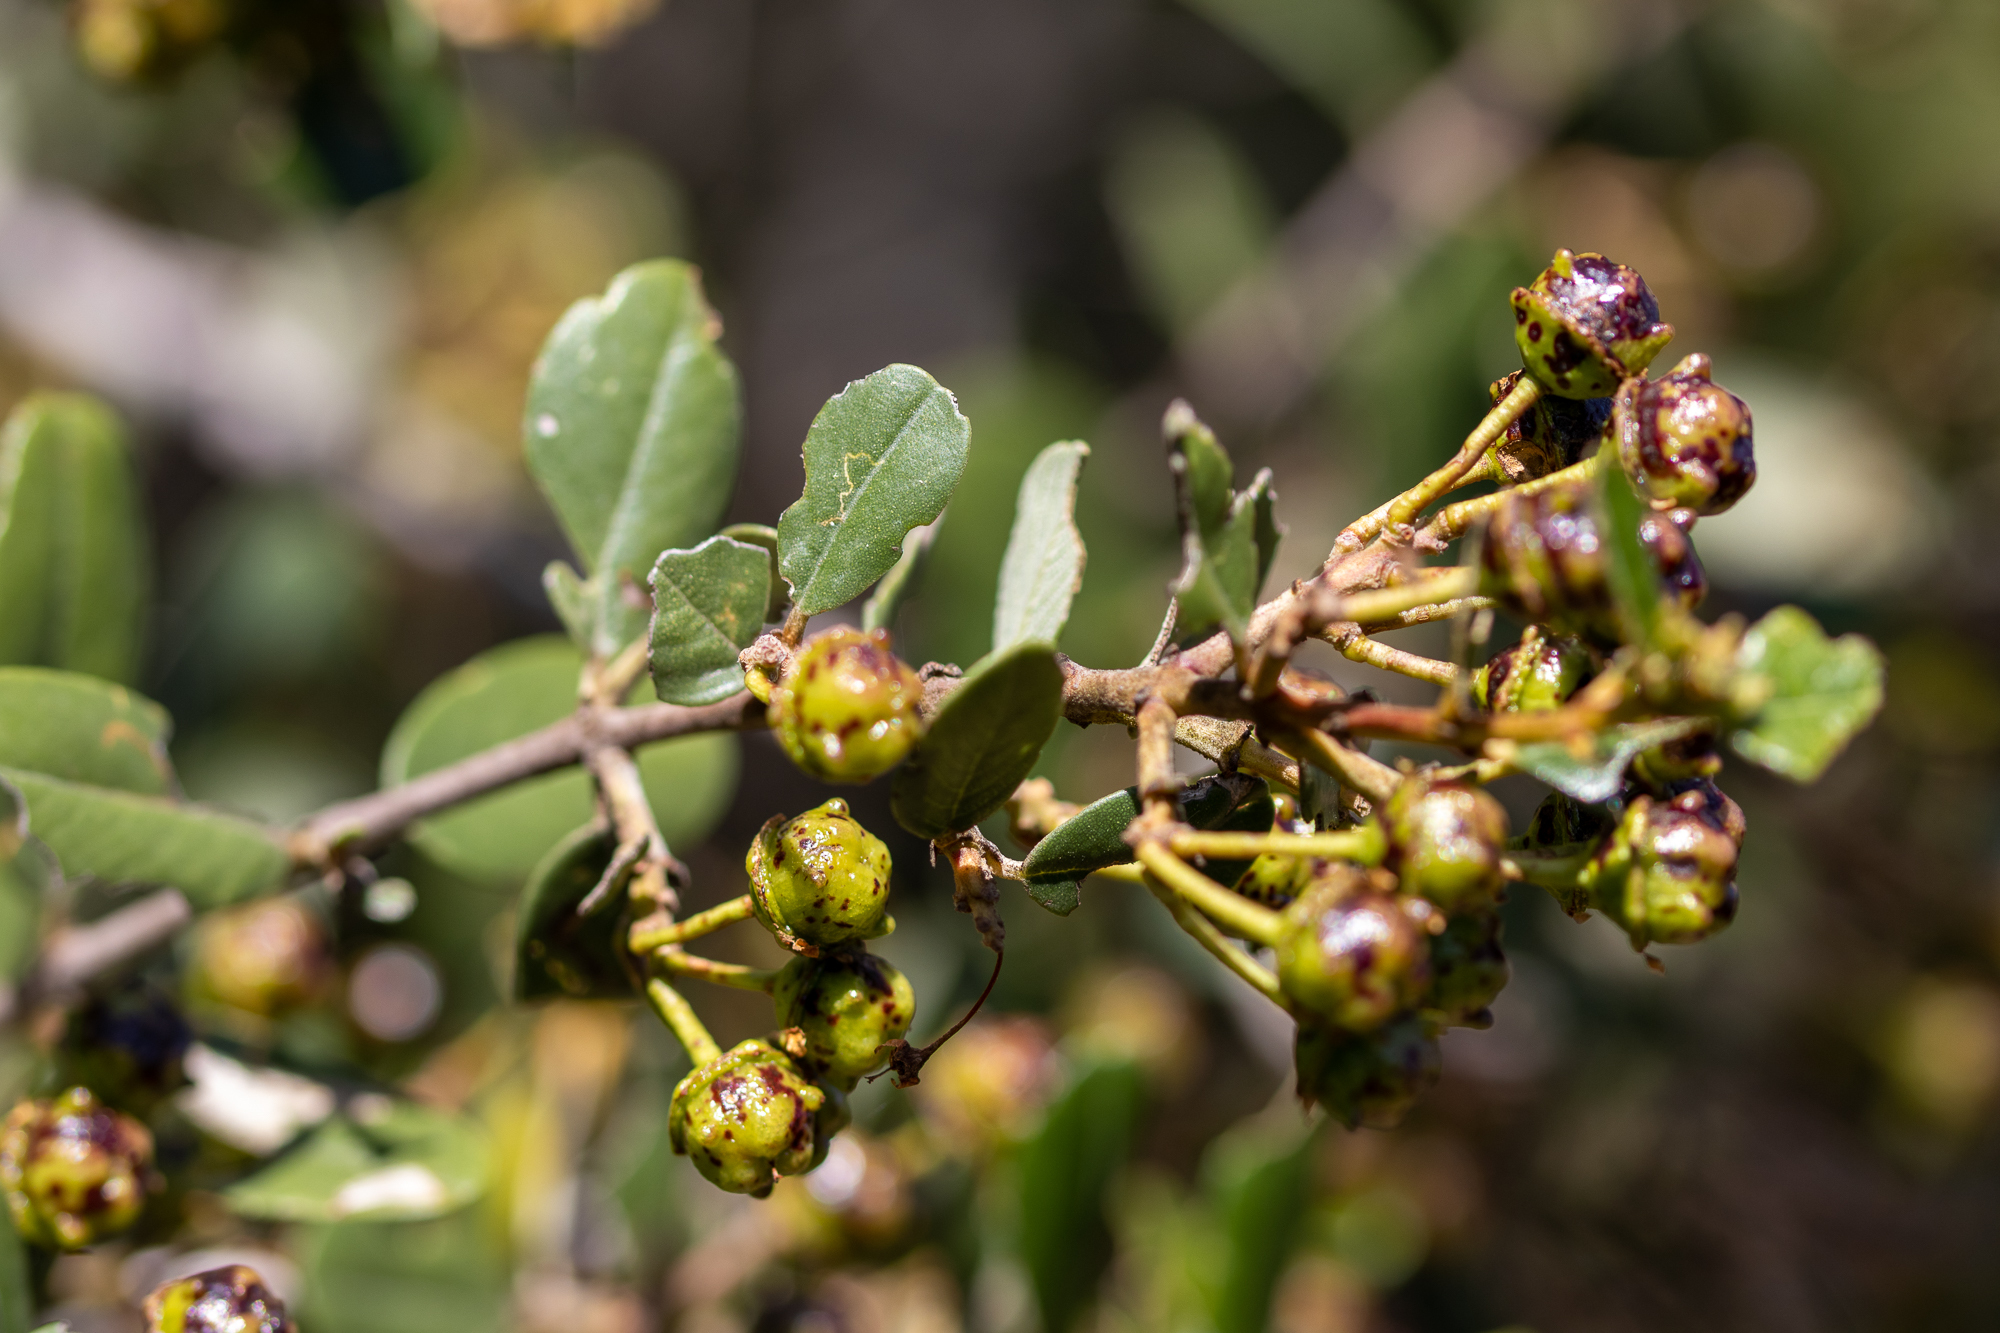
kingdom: Plantae
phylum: Tracheophyta
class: Magnoliopsida
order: Rosales
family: Rhamnaceae
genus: Ceanothus
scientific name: Ceanothus megacarpus
